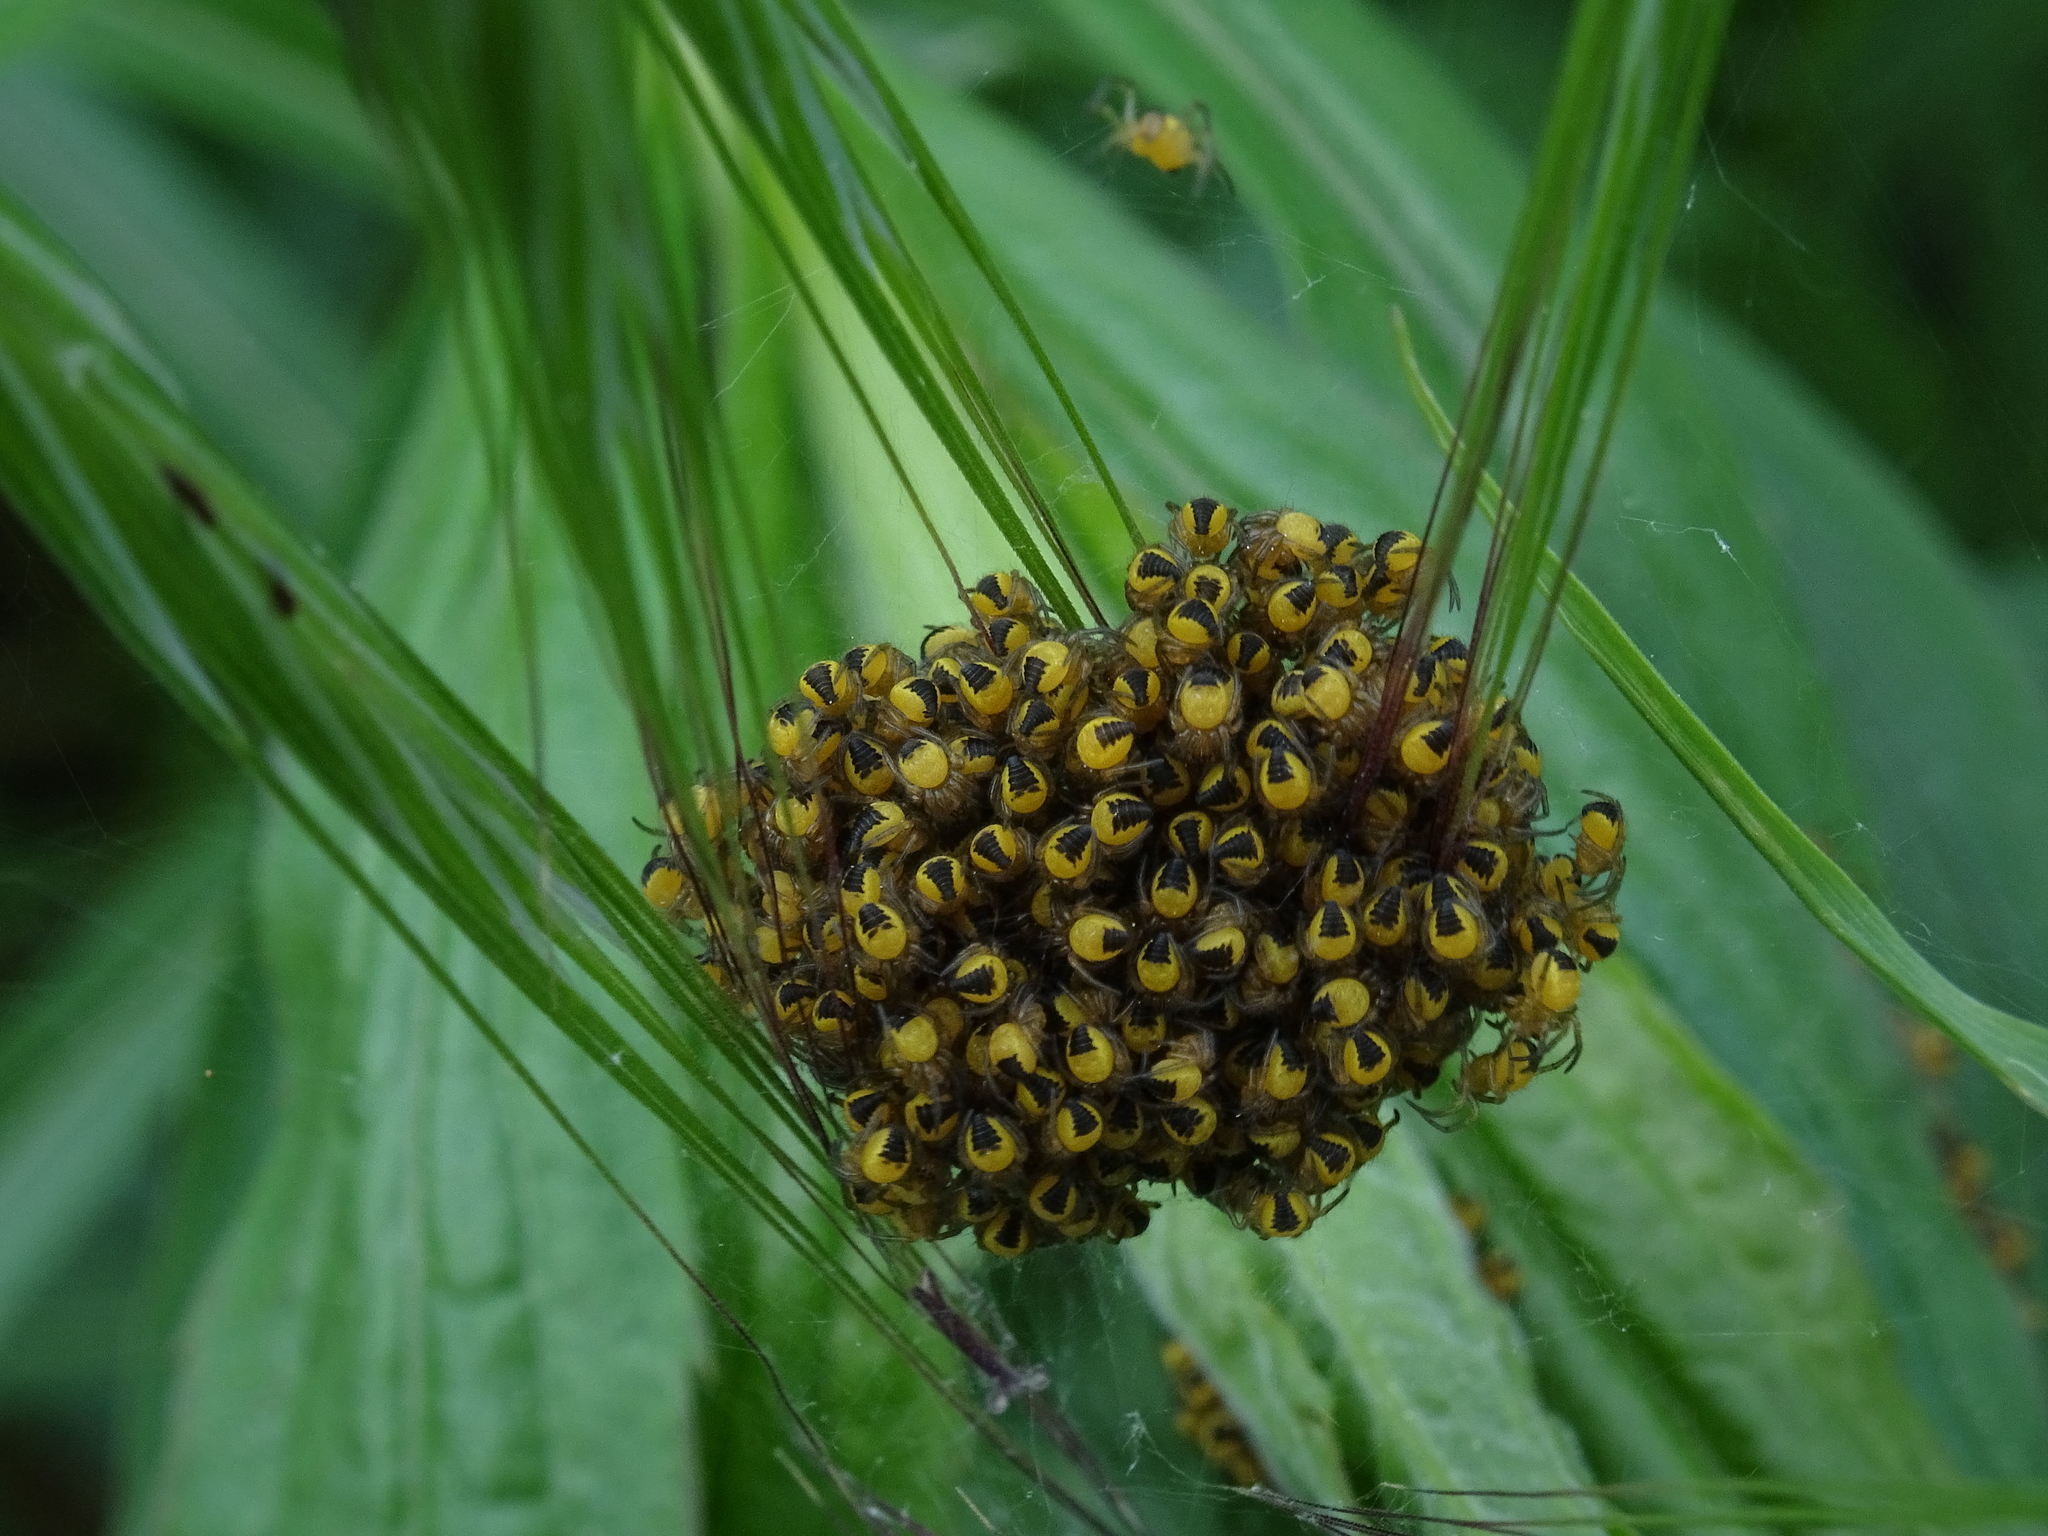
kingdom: Animalia
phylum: Arthropoda
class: Arachnida
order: Araneae
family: Araneidae
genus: Araneus
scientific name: Araneus diadematus
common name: Cross orbweaver
